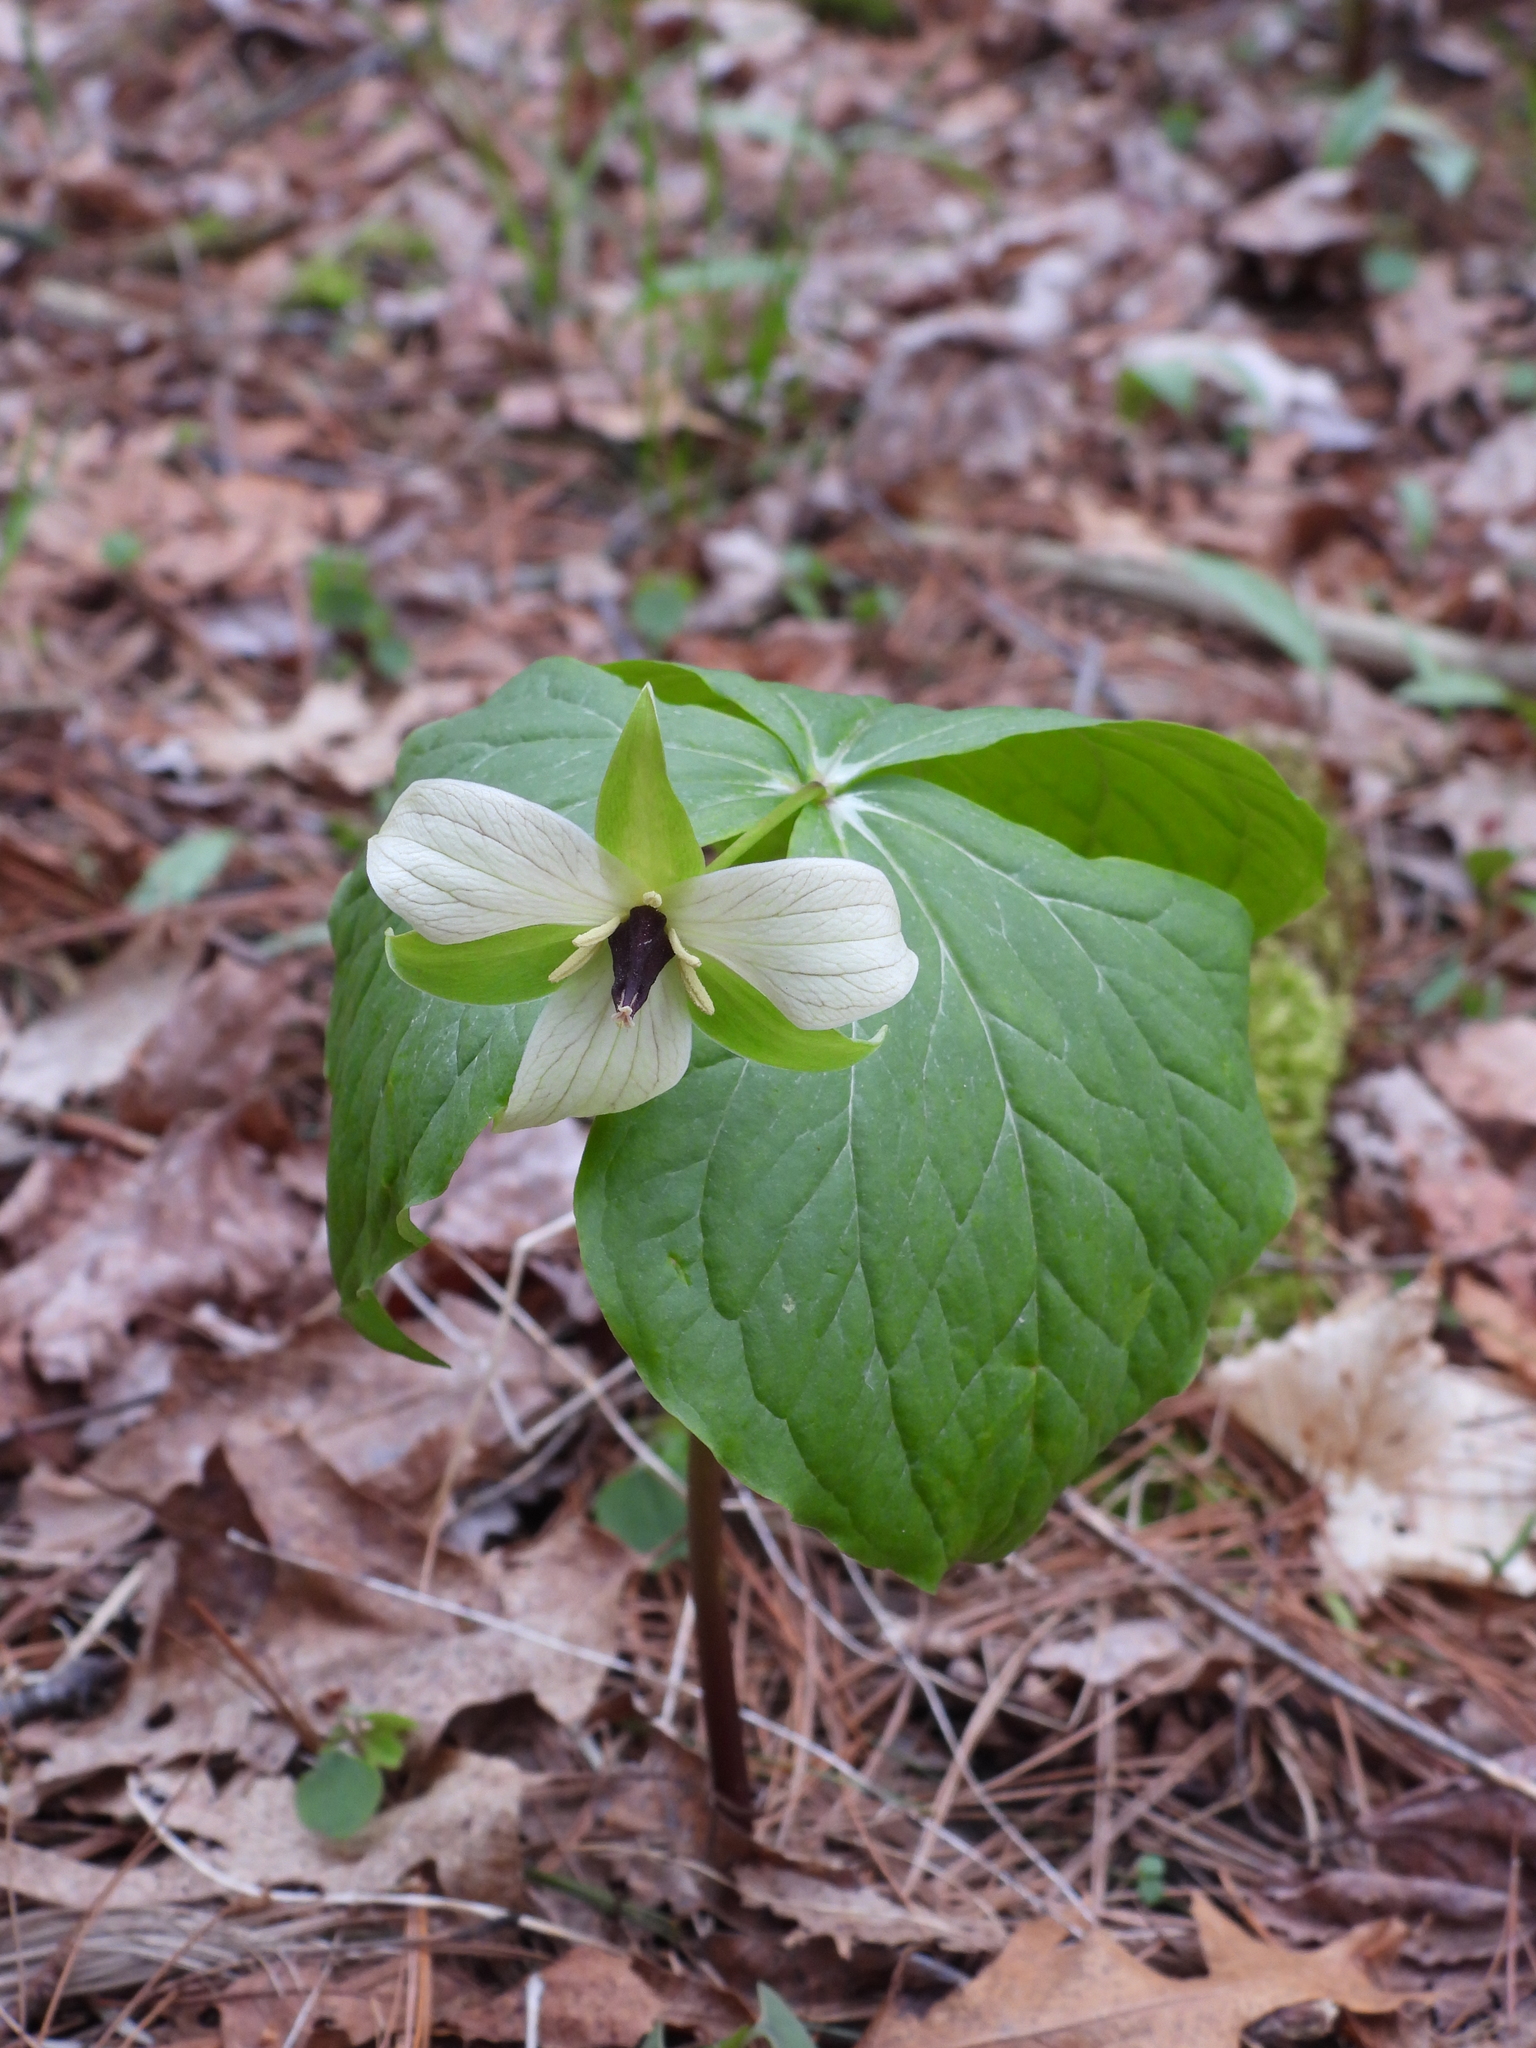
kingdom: Plantae
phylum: Tracheophyta
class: Liliopsida
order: Liliales
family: Melanthiaceae
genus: Trillium
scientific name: Trillium erectum
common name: Purple trillium
